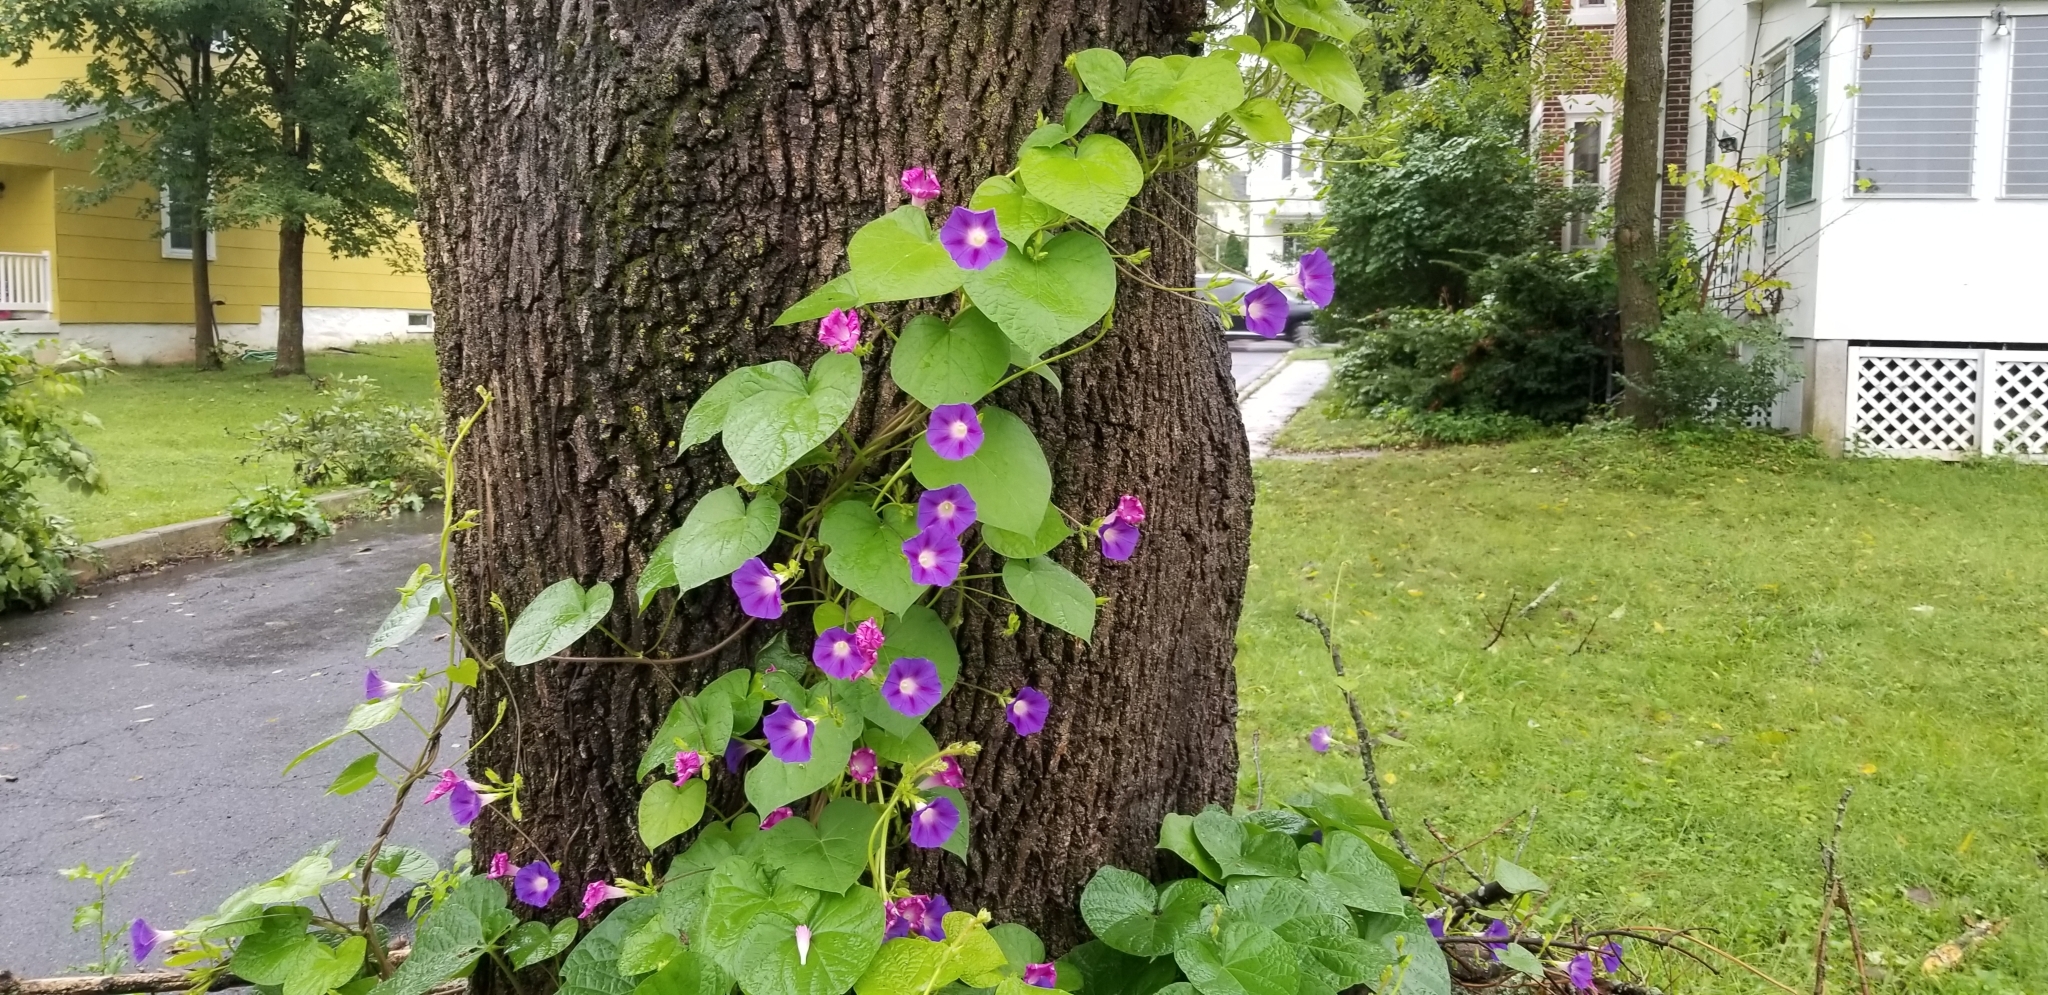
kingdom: Plantae
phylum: Tracheophyta
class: Magnoliopsida
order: Solanales
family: Convolvulaceae
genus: Ipomoea
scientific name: Ipomoea purpurea
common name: Common morning-glory
